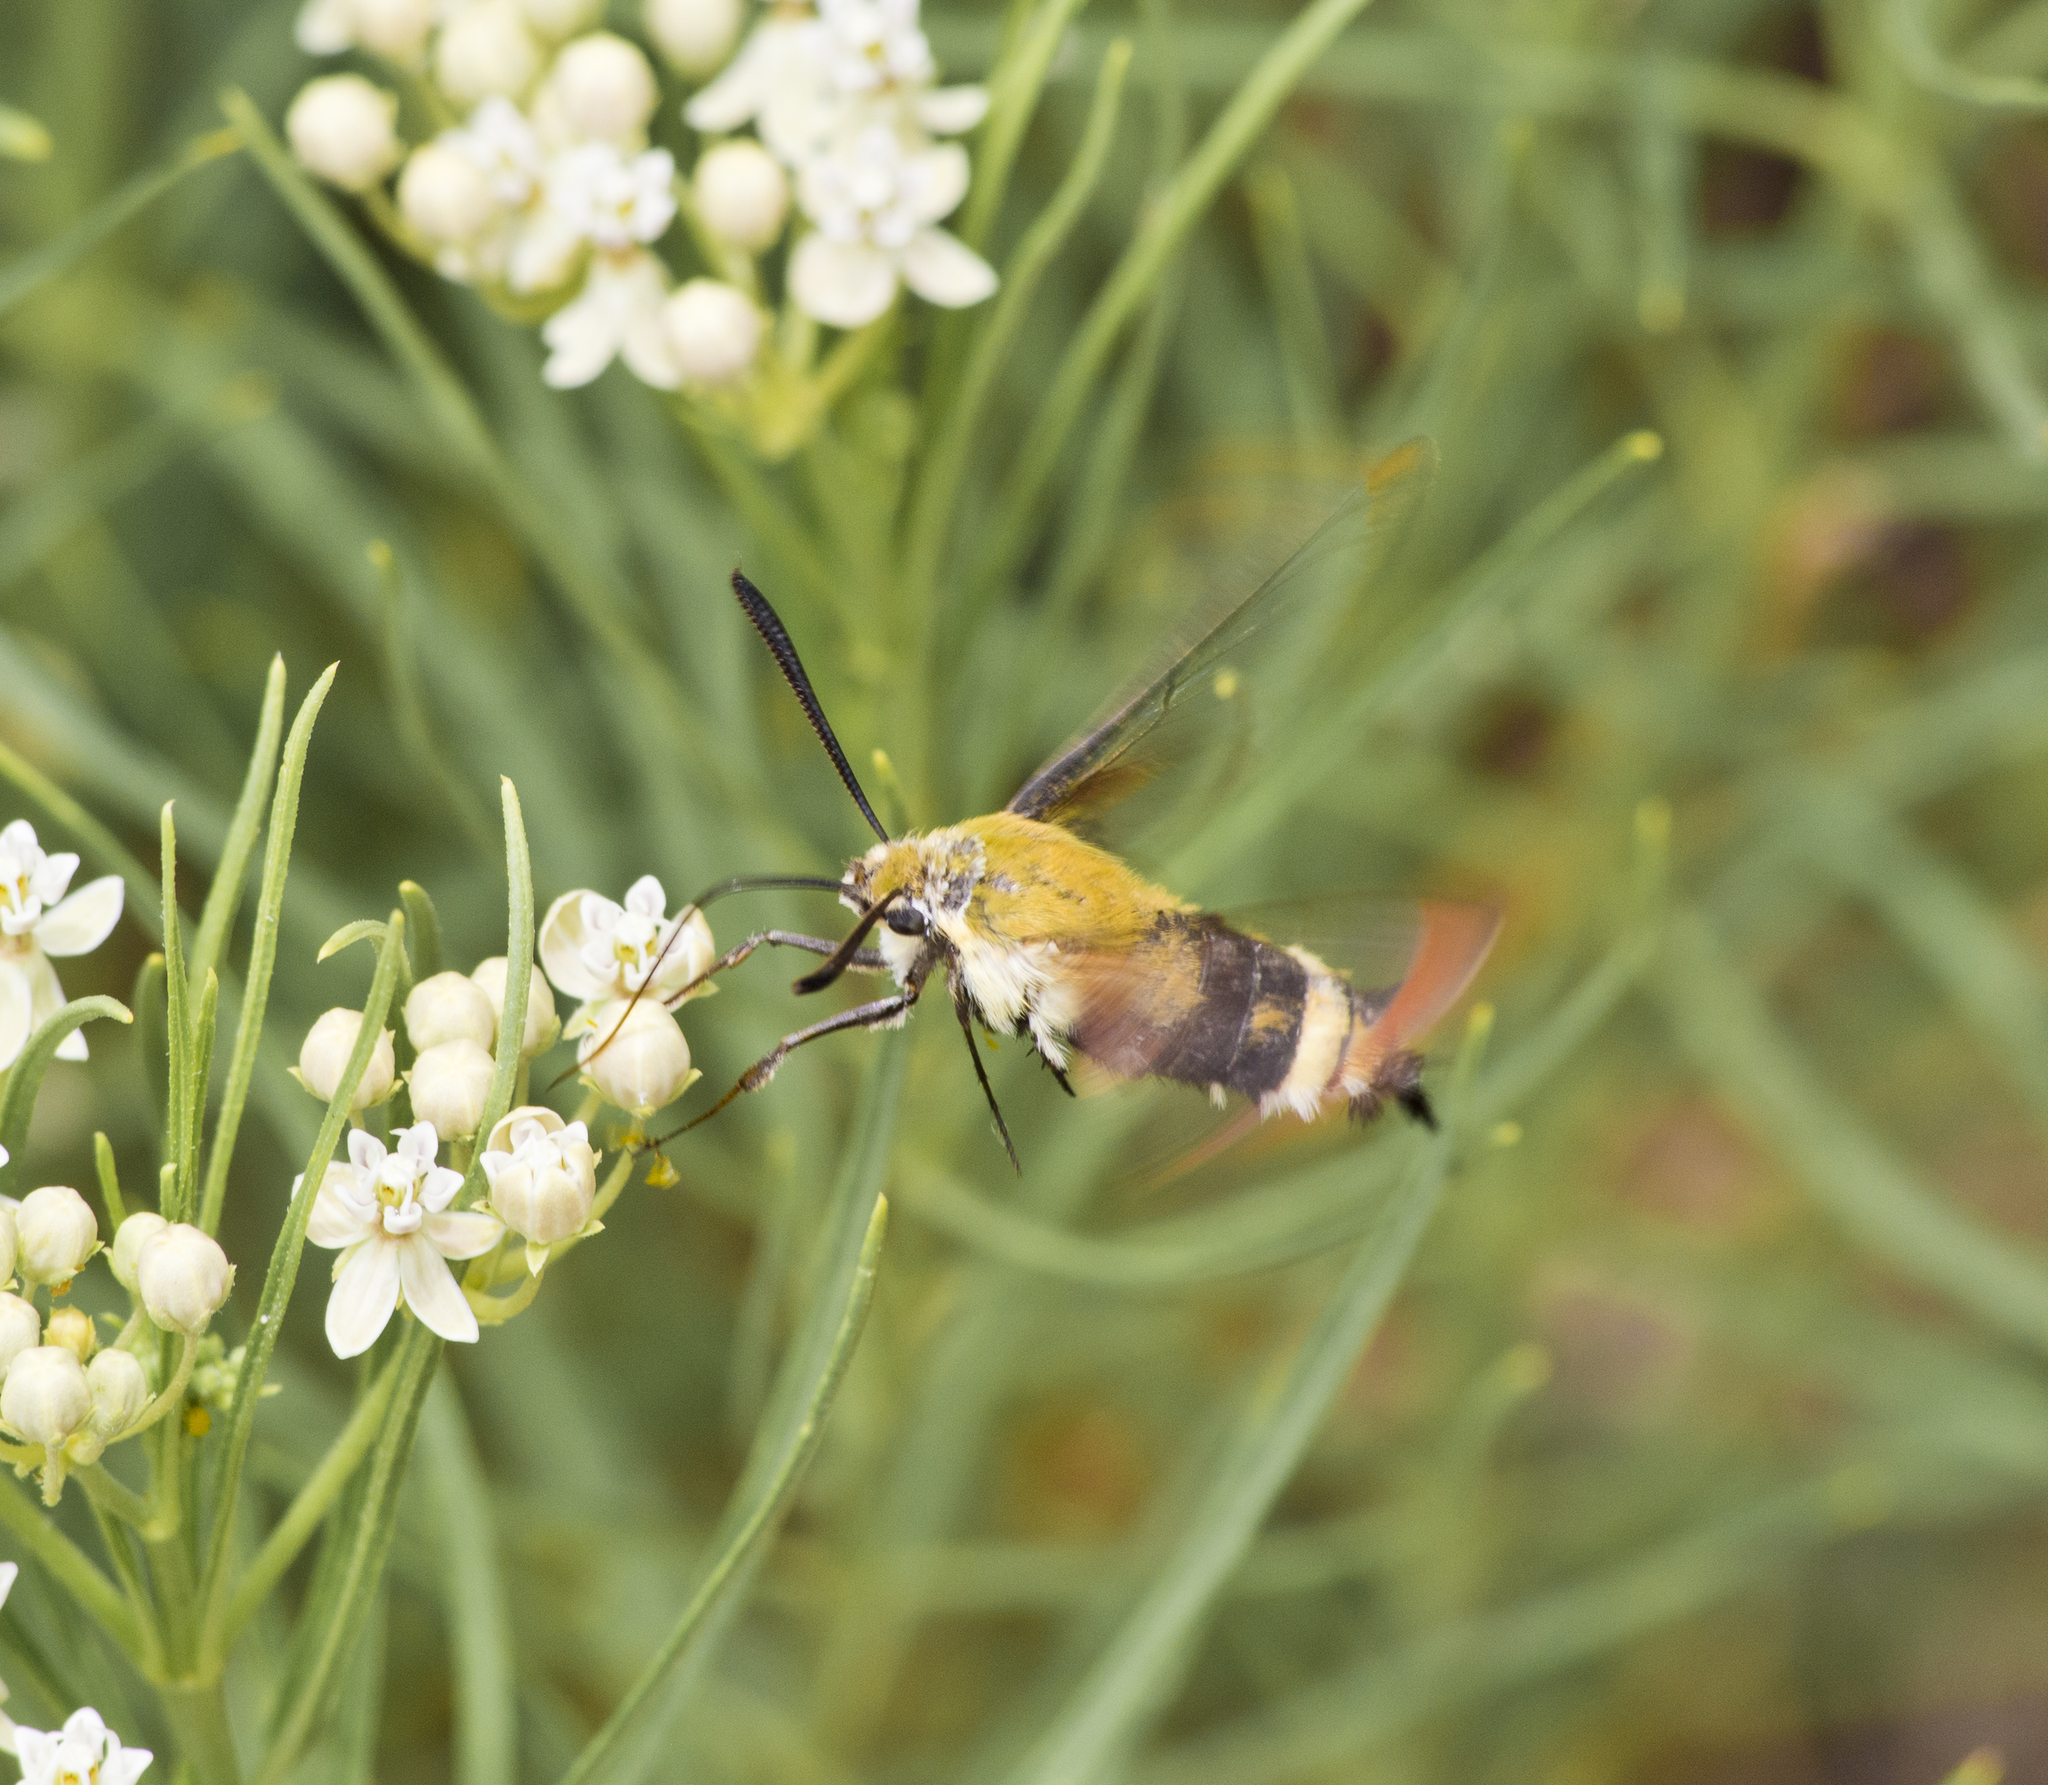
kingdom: Animalia
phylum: Arthropoda
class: Insecta
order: Lepidoptera
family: Sphingidae
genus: Hemaris
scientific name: Hemaris thetis
